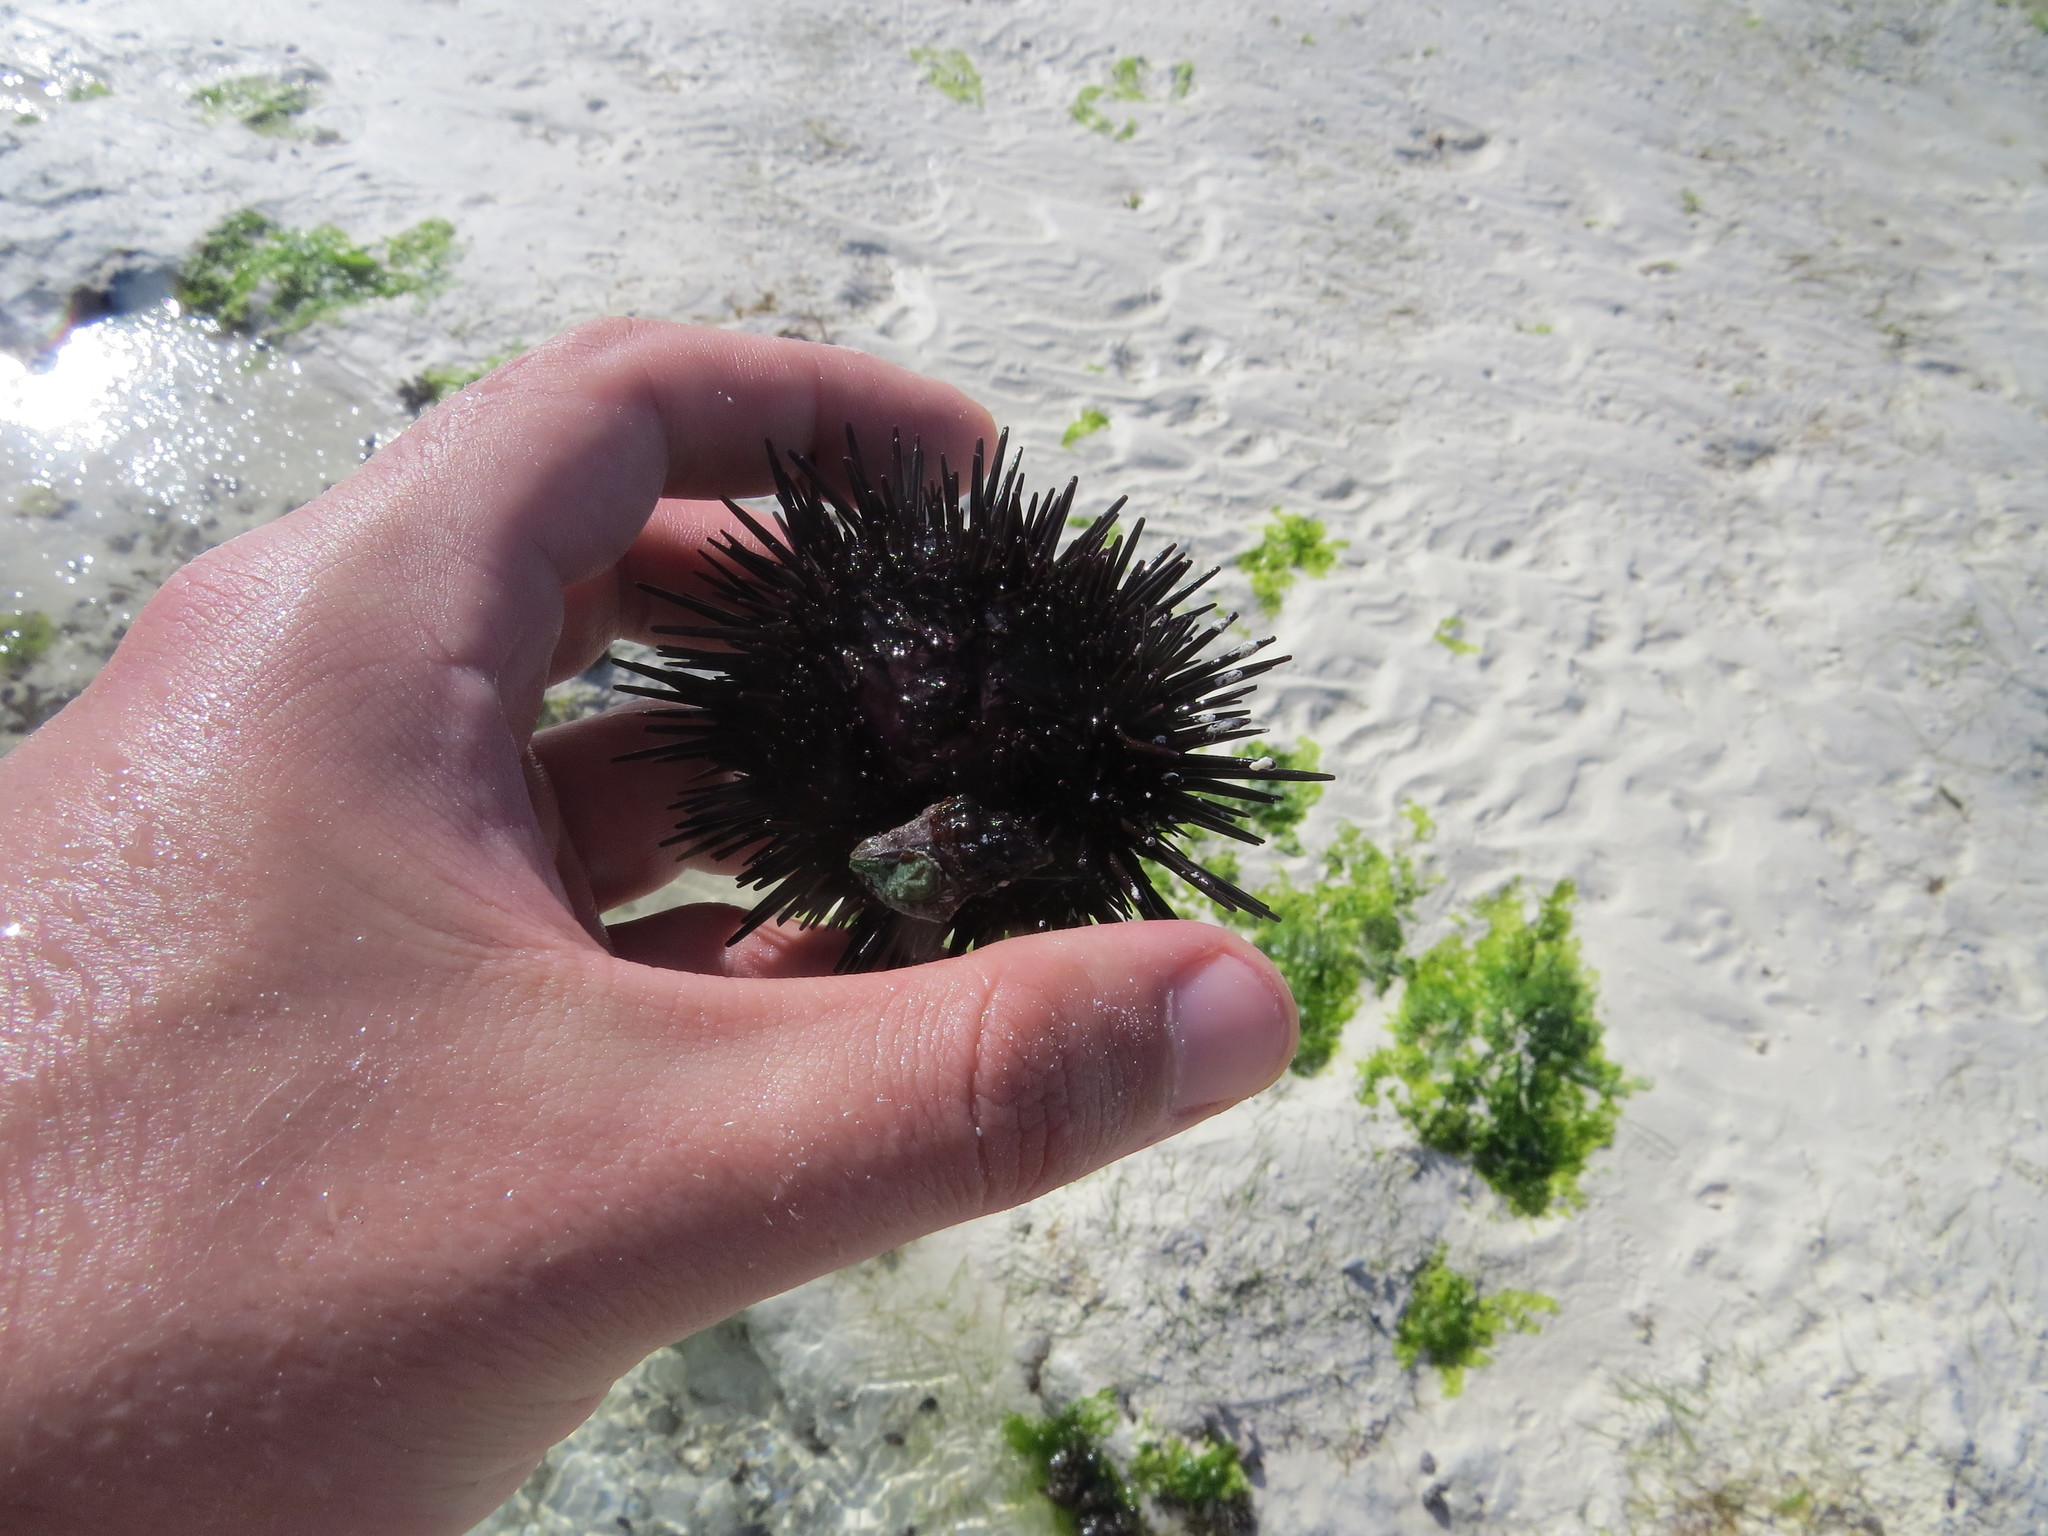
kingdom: Animalia
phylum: Echinodermata
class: Echinoidea
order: Stomopneustoida
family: Stomopneustidae
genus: Stomopneustes
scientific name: Stomopneustes variolaris
